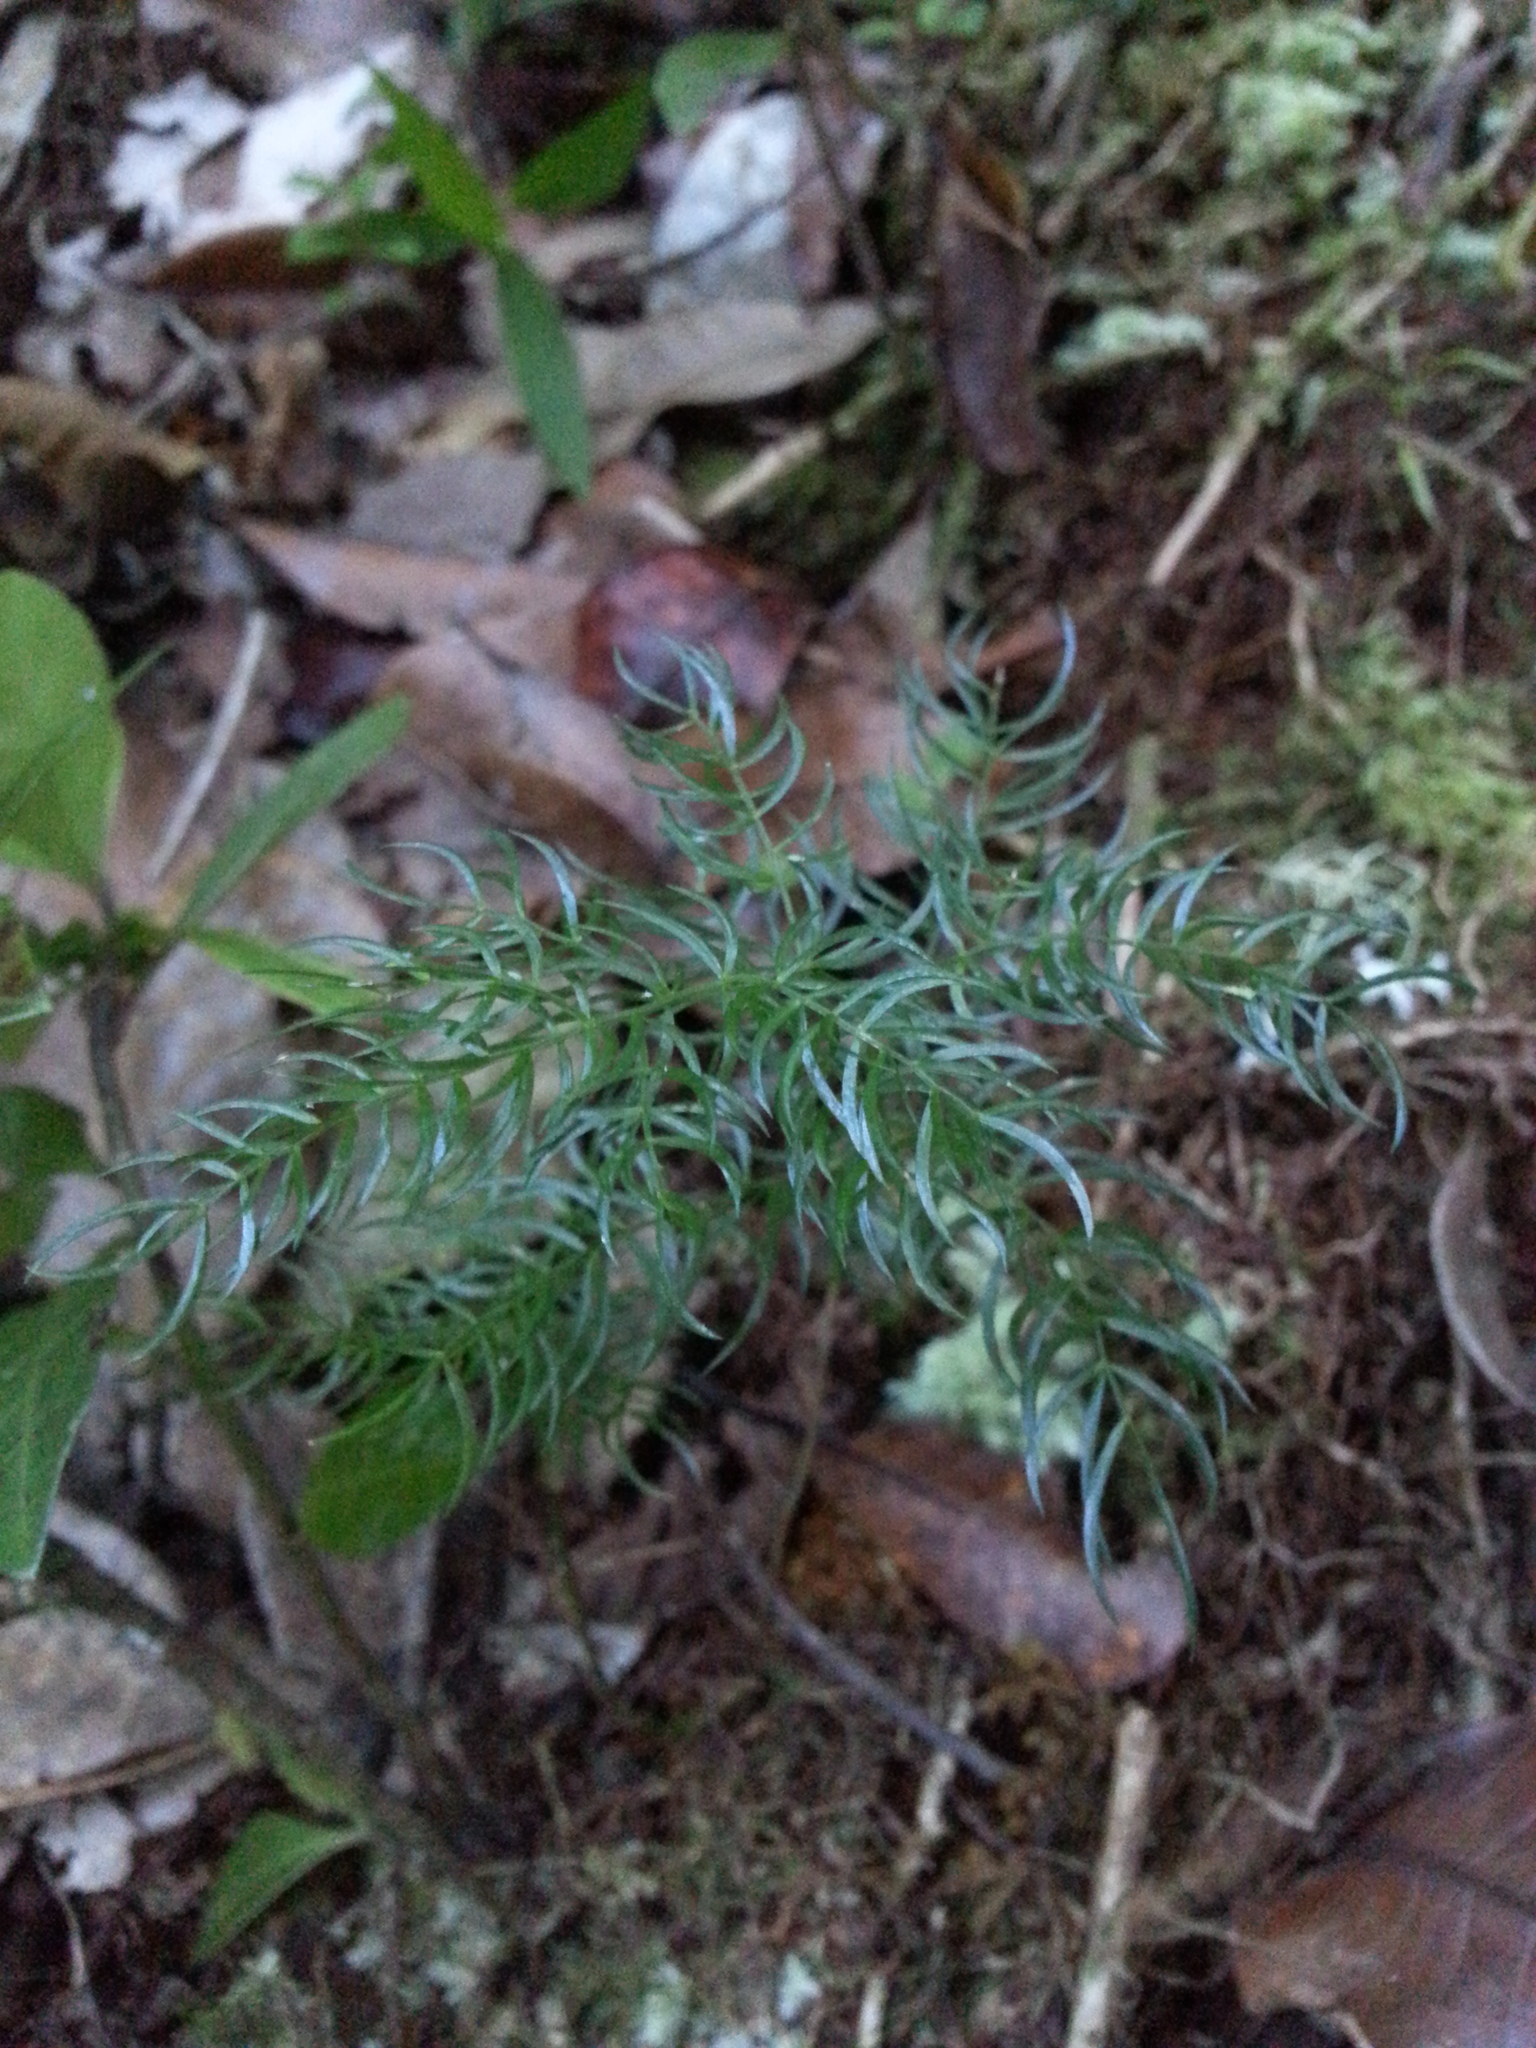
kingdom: Plantae
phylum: Tracheophyta
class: Liliopsida
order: Asparagales
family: Asparagaceae
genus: Asparagus
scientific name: Asparagus simulans
